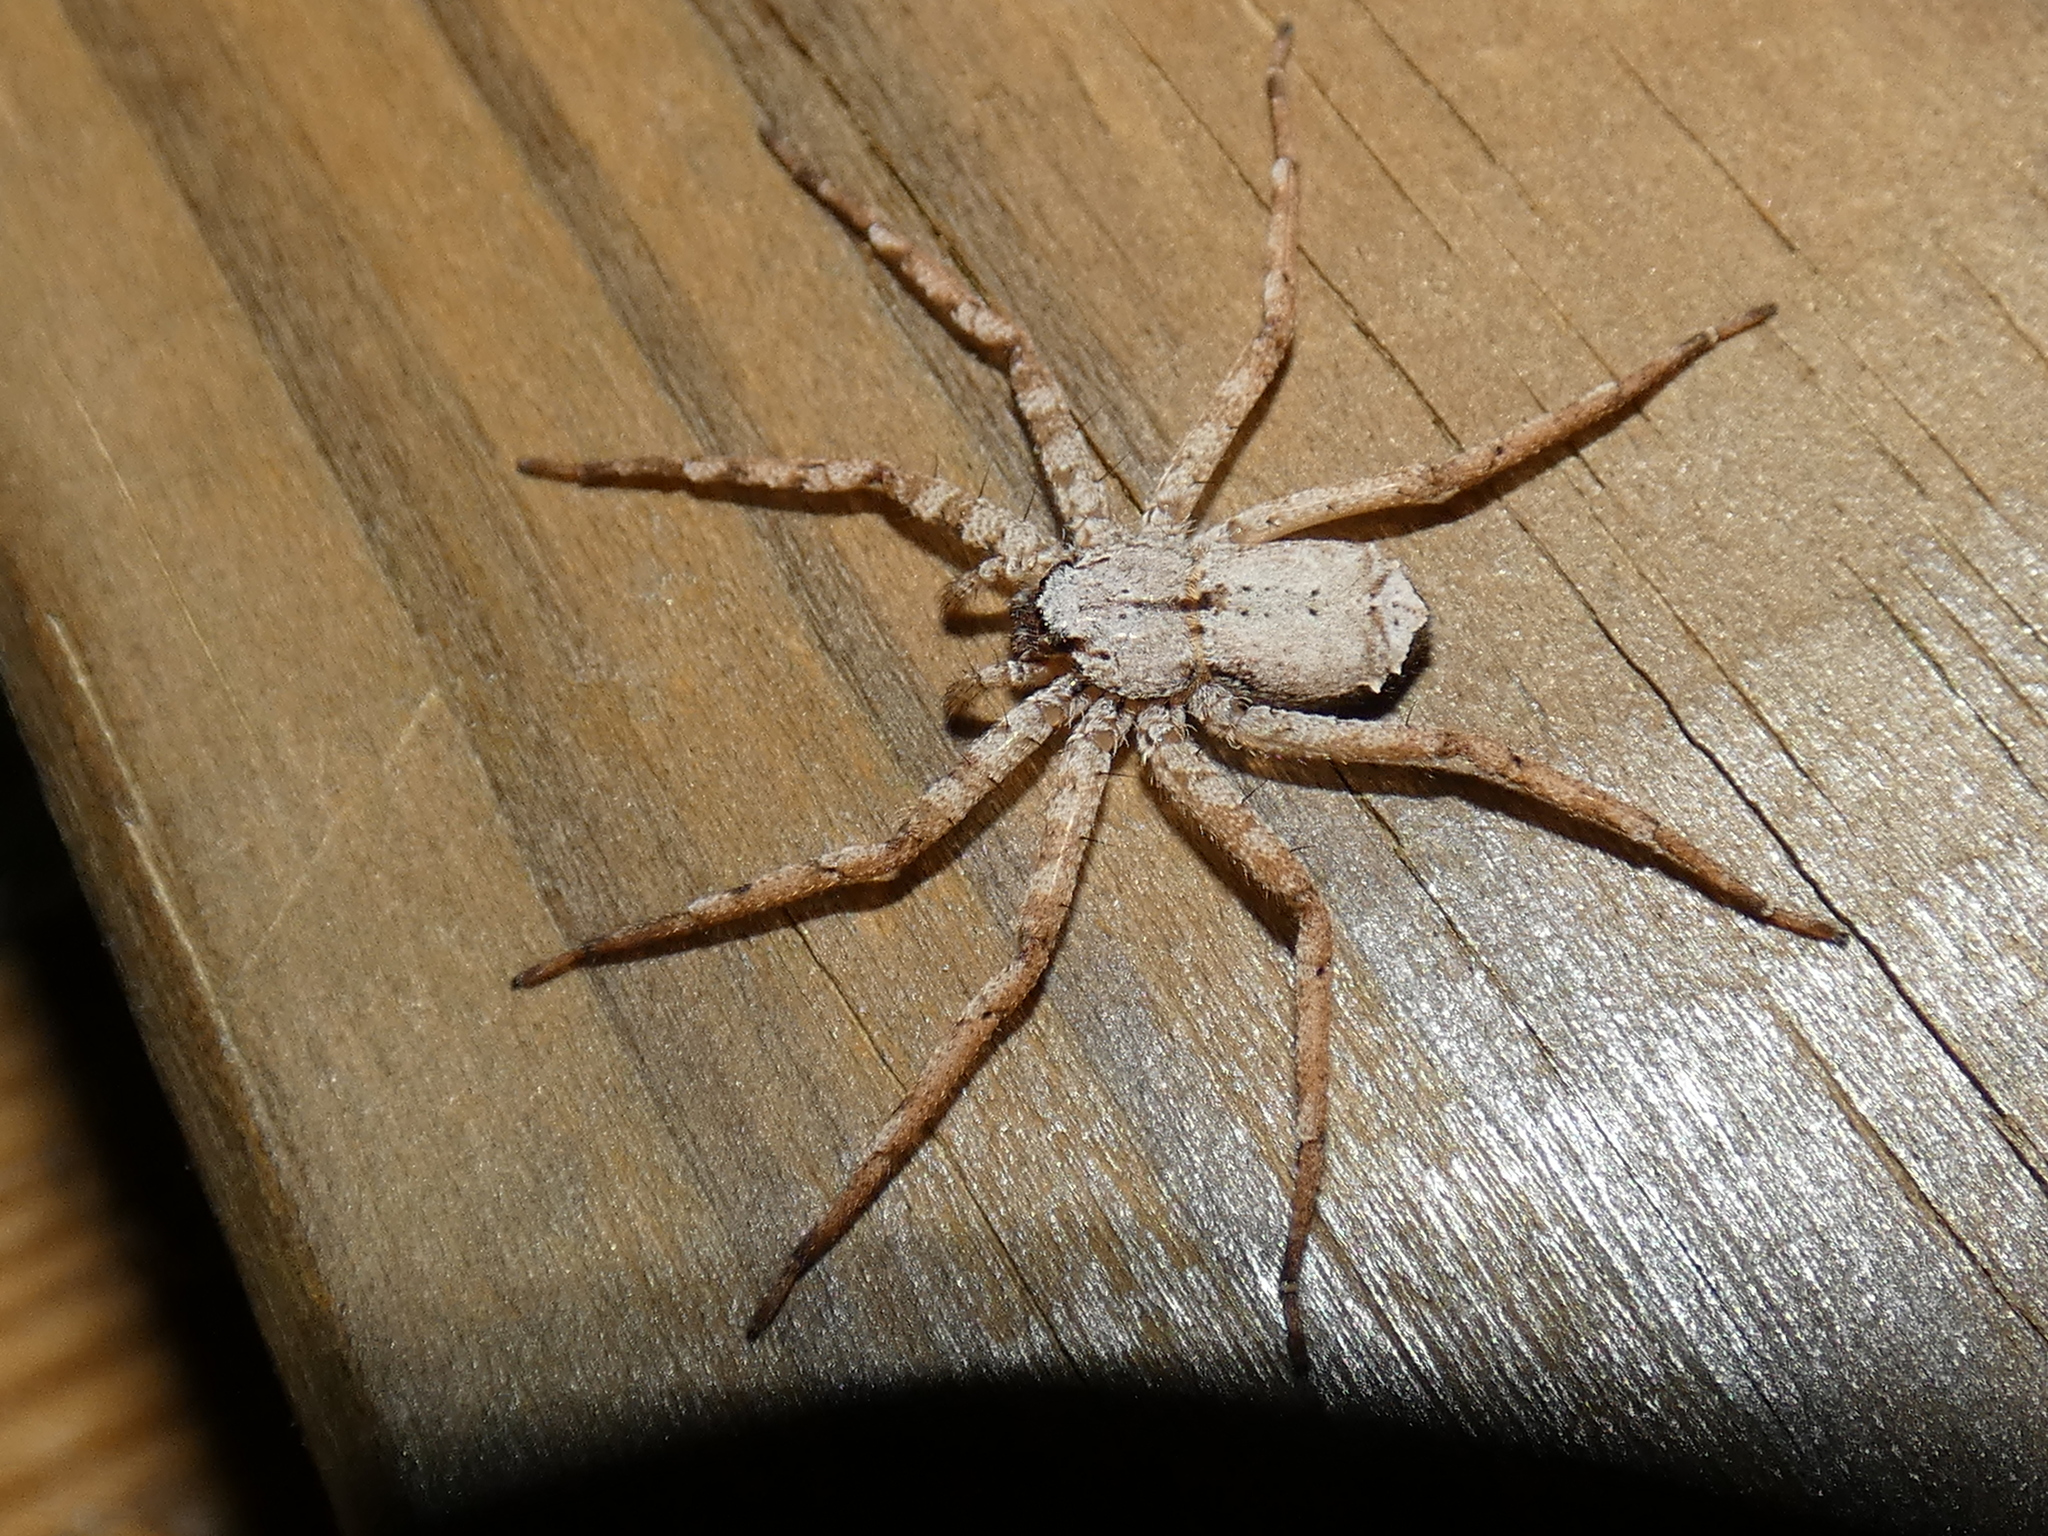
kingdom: Animalia
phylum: Arthropoda
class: Arachnida
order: Araneae
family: Selenopidae
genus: Selenops
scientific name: Selenops submaculosus
